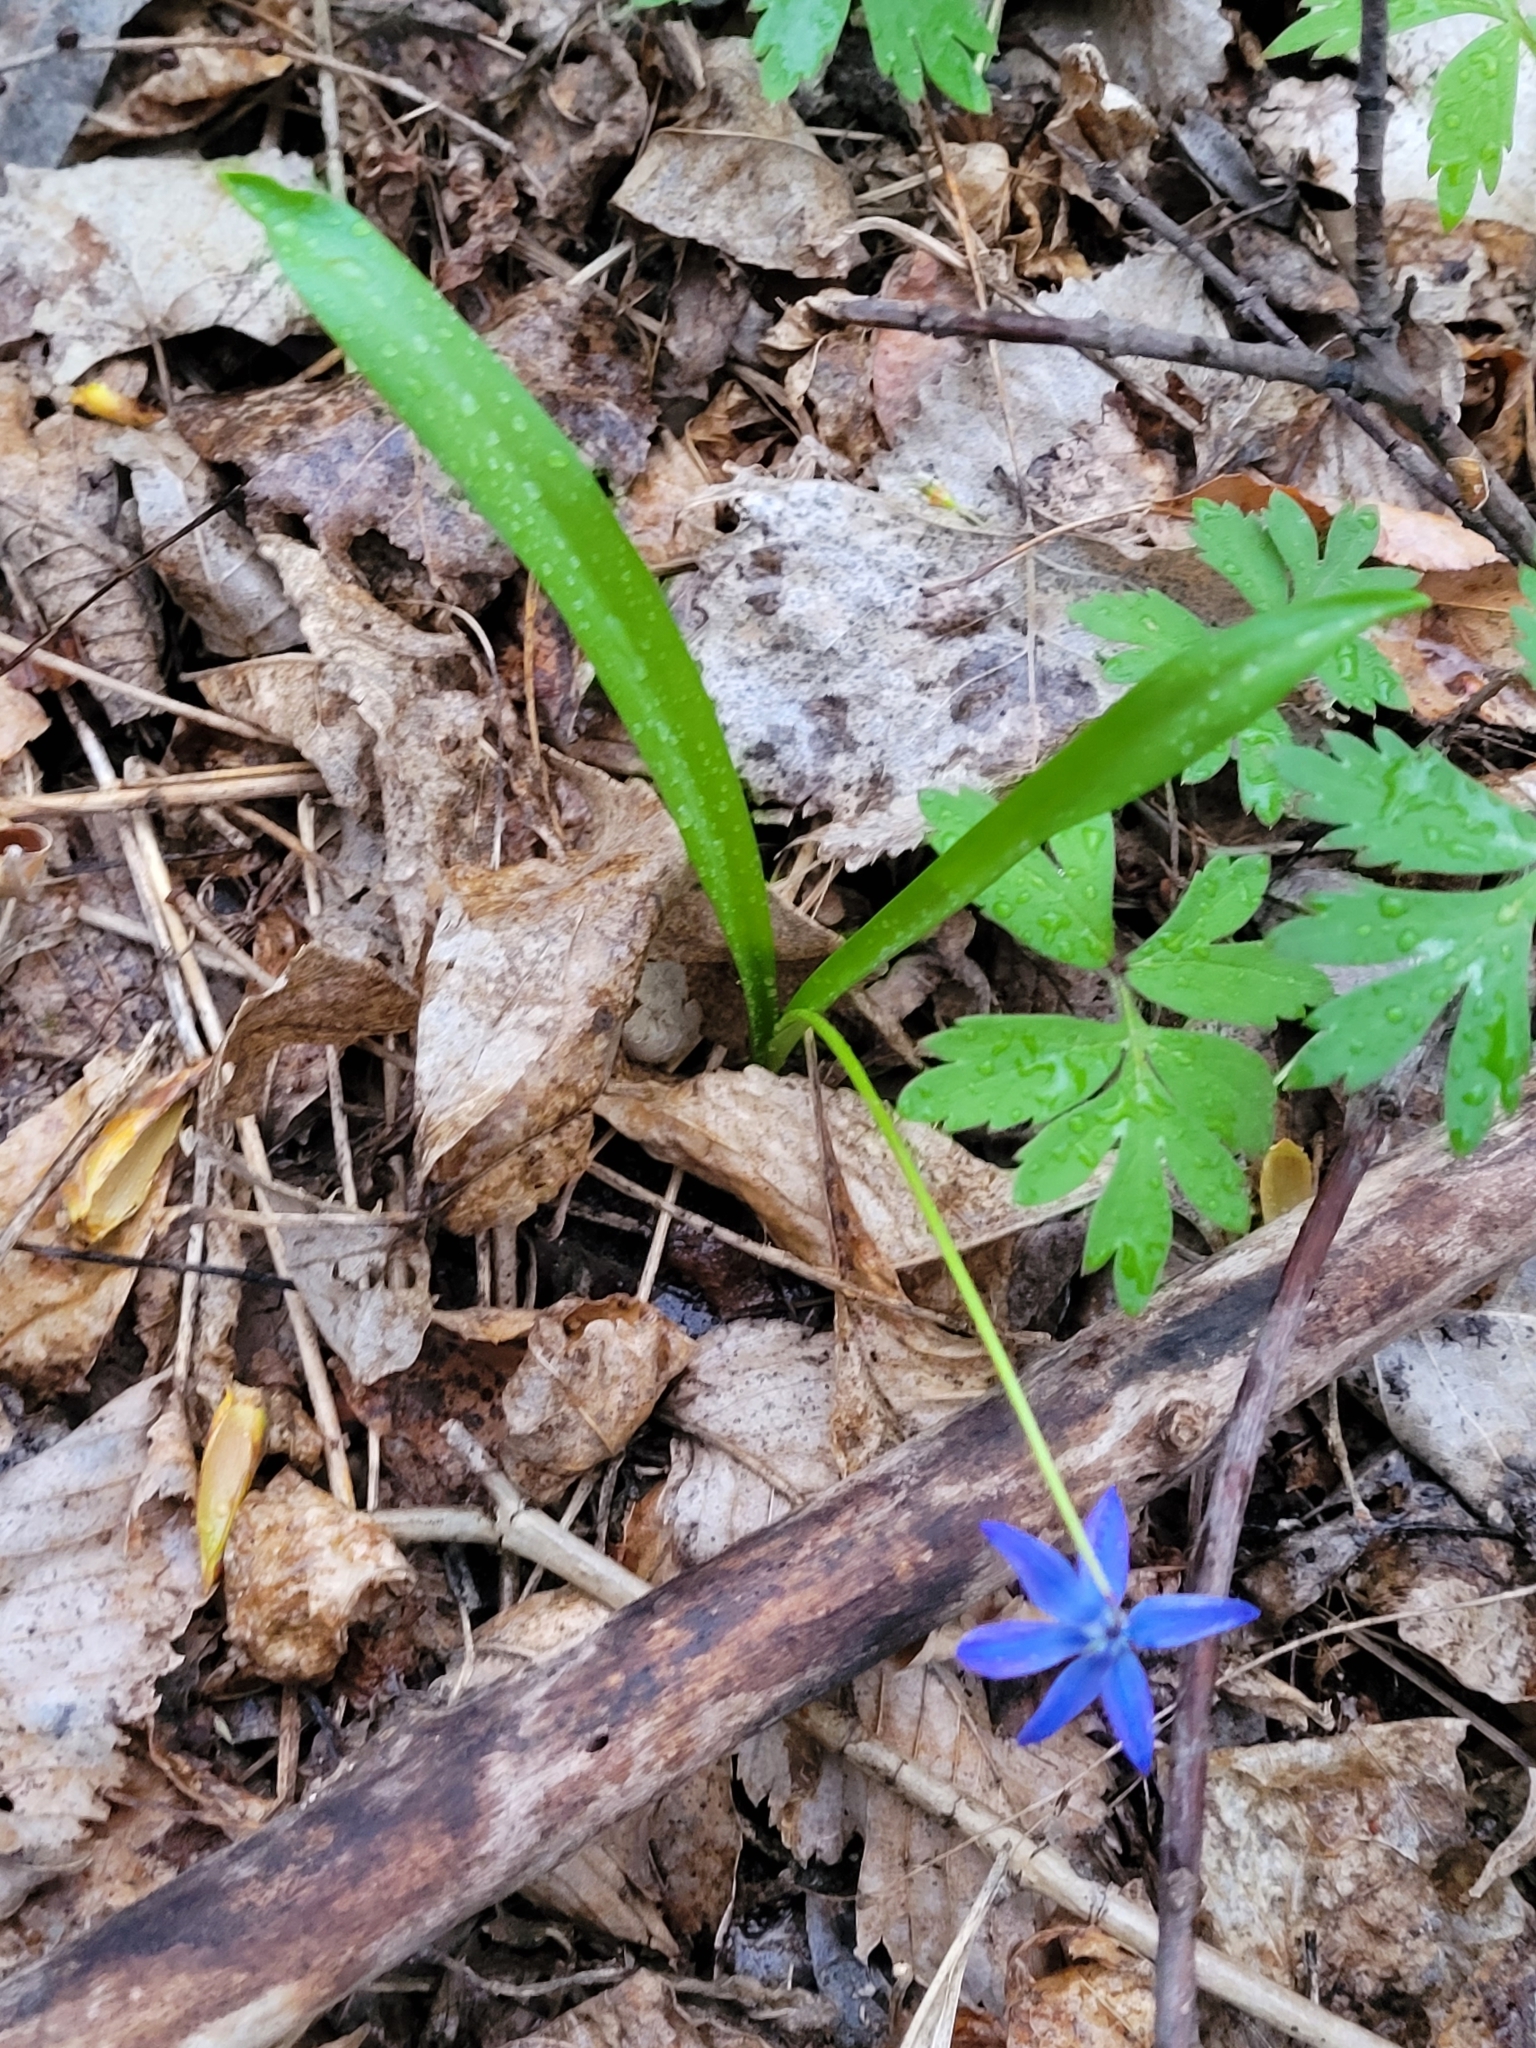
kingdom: Plantae
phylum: Tracheophyta
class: Liliopsida
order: Asparagales
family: Asparagaceae
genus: Scilla
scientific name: Scilla siberica
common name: Siberian squill
